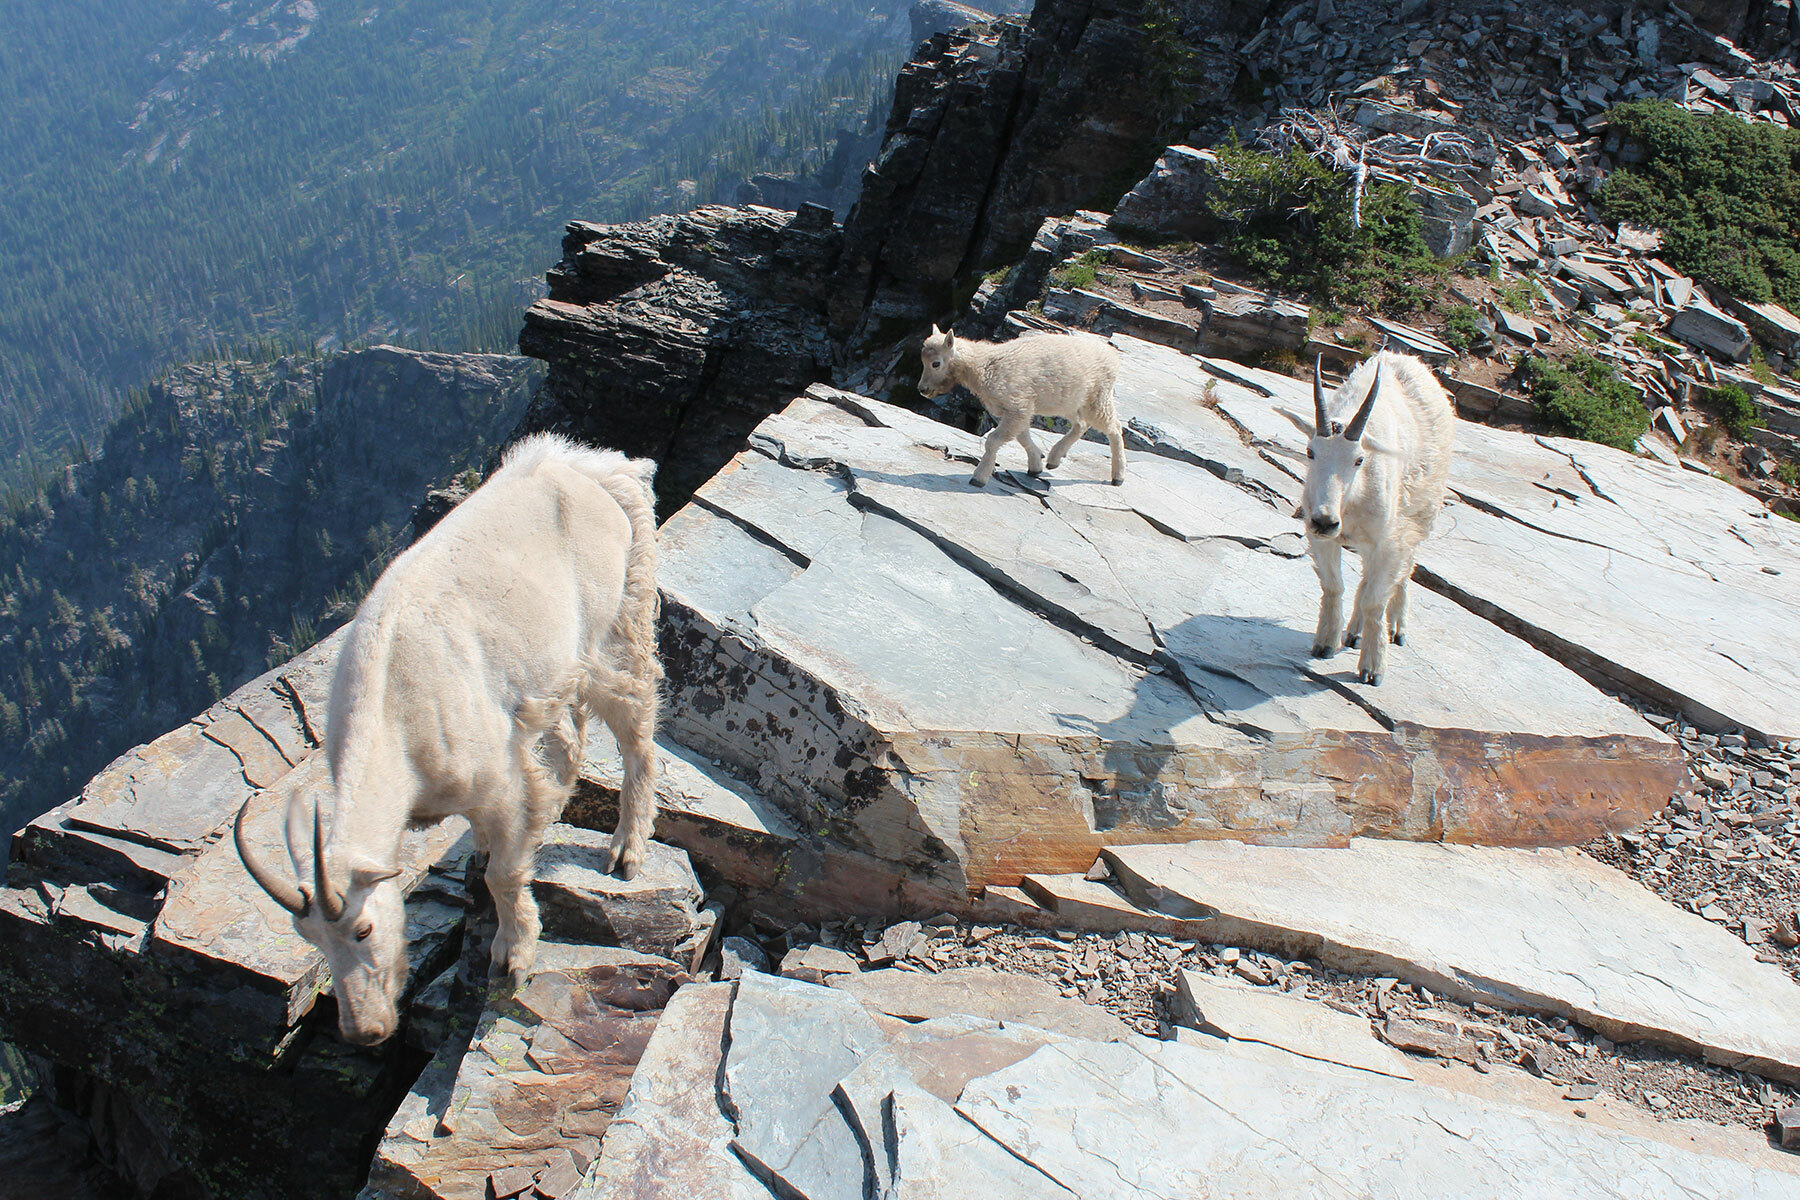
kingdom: Animalia
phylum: Chordata
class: Mammalia
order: Artiodactyla
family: Bovidae
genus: Oreamnos
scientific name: Oreamnos americanus
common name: Mountain goat
